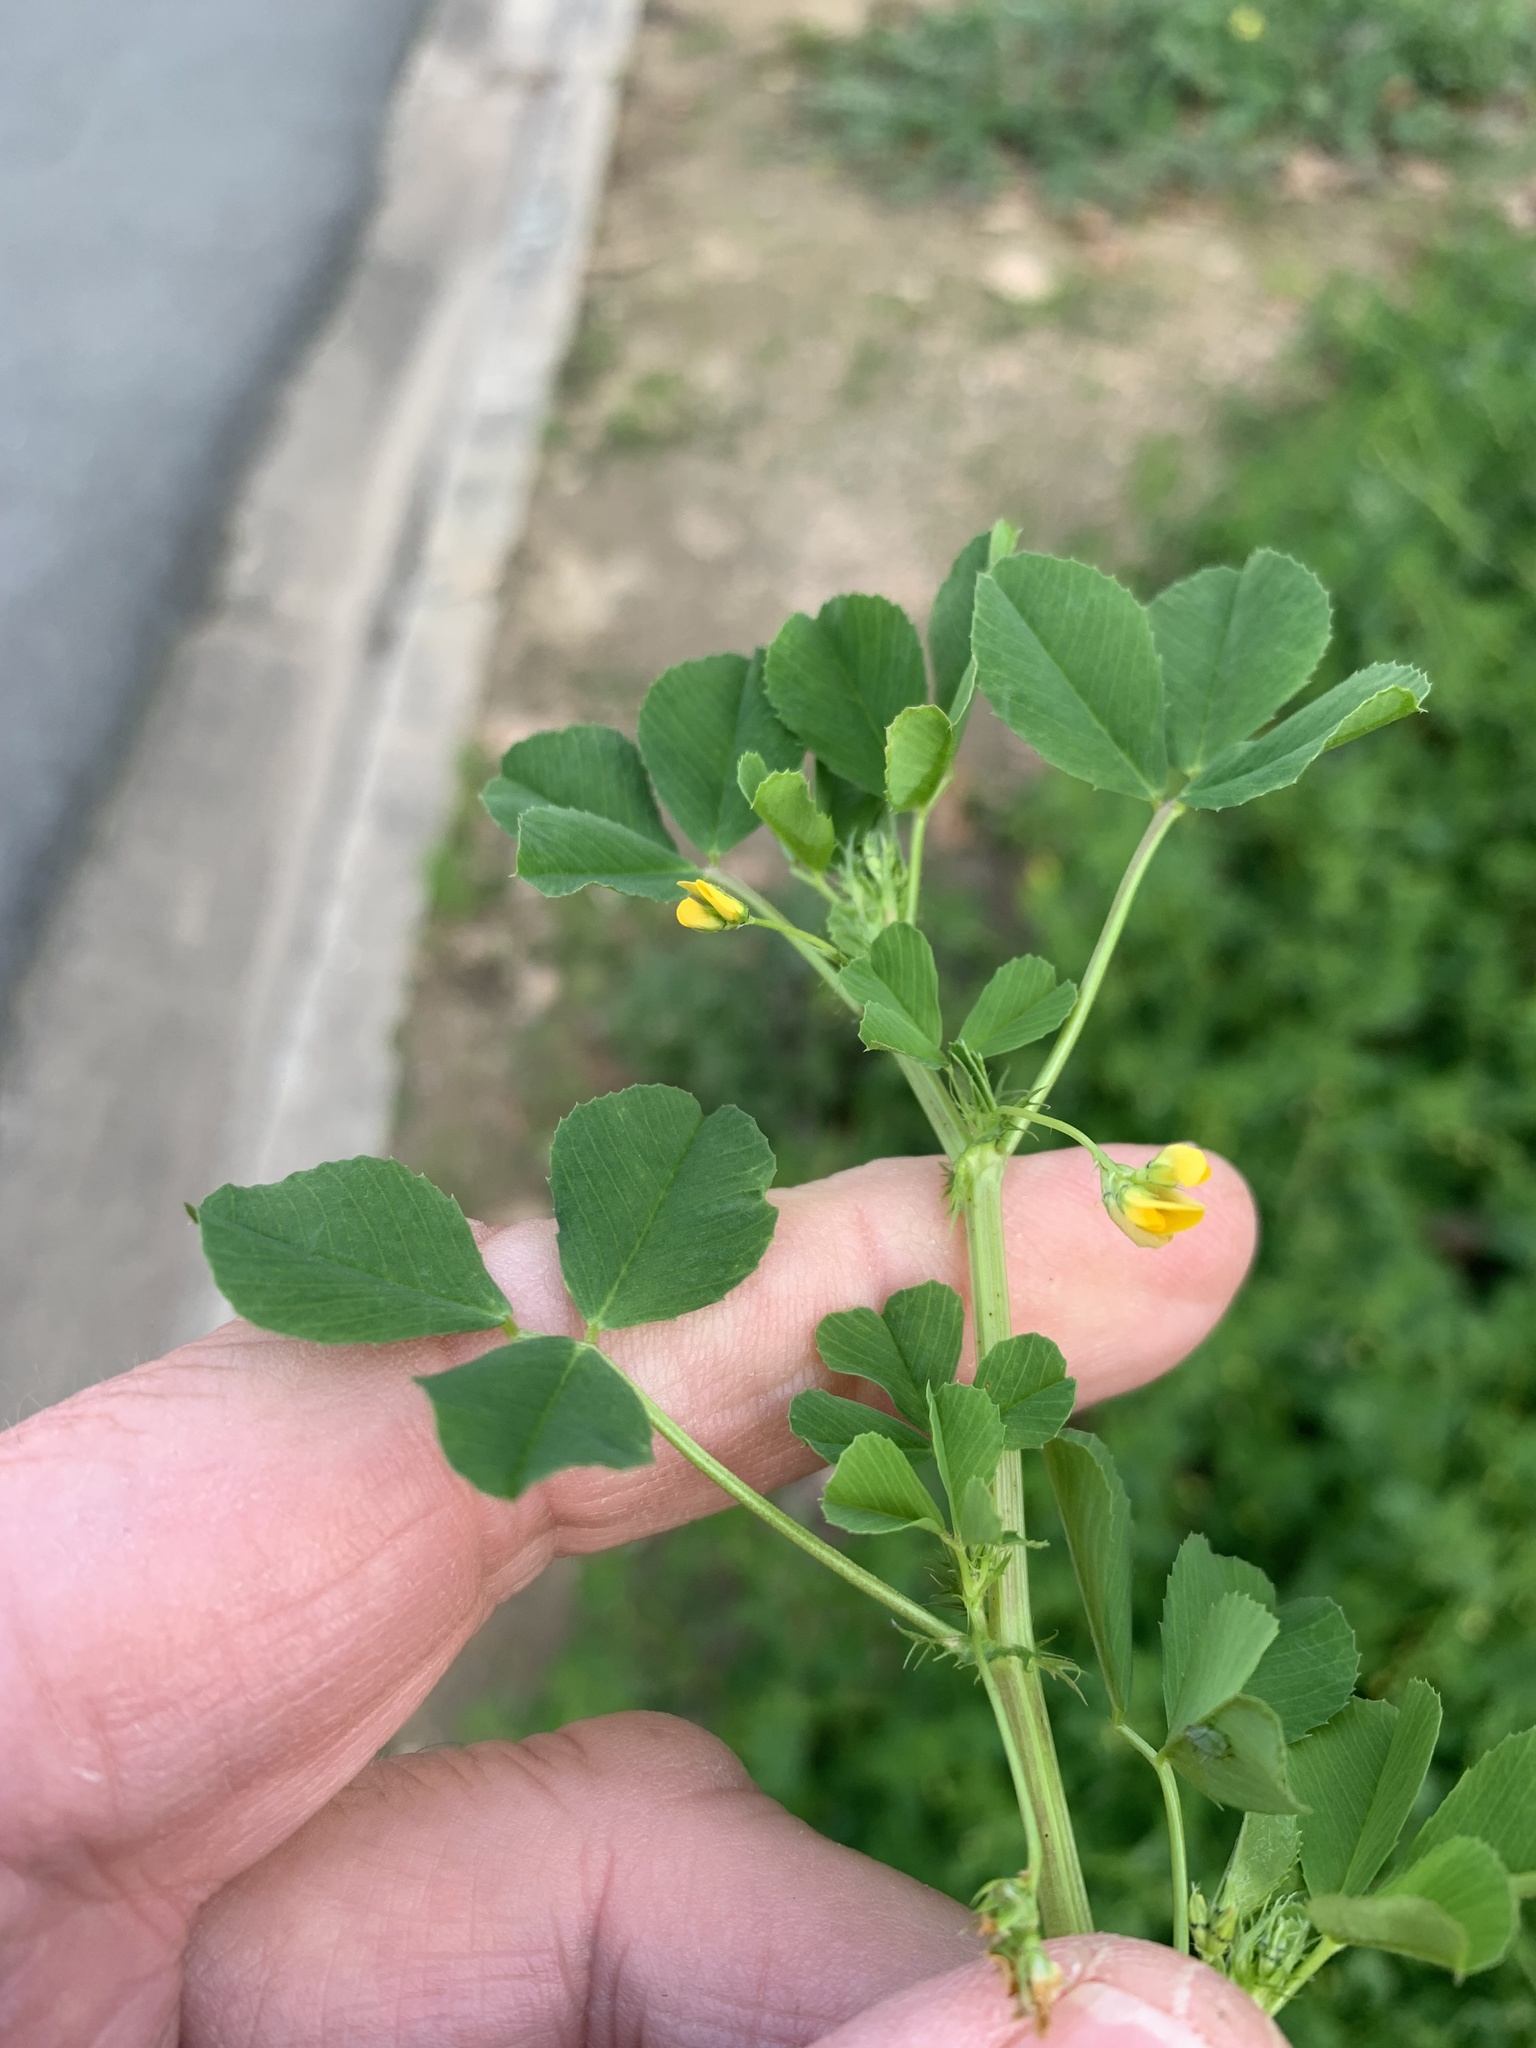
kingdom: Plantae
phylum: Tracheophyta
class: Magnoliopsida
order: Fabales
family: Fabaceae
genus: Medicago
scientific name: Medicago polymorpha
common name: Burclover
